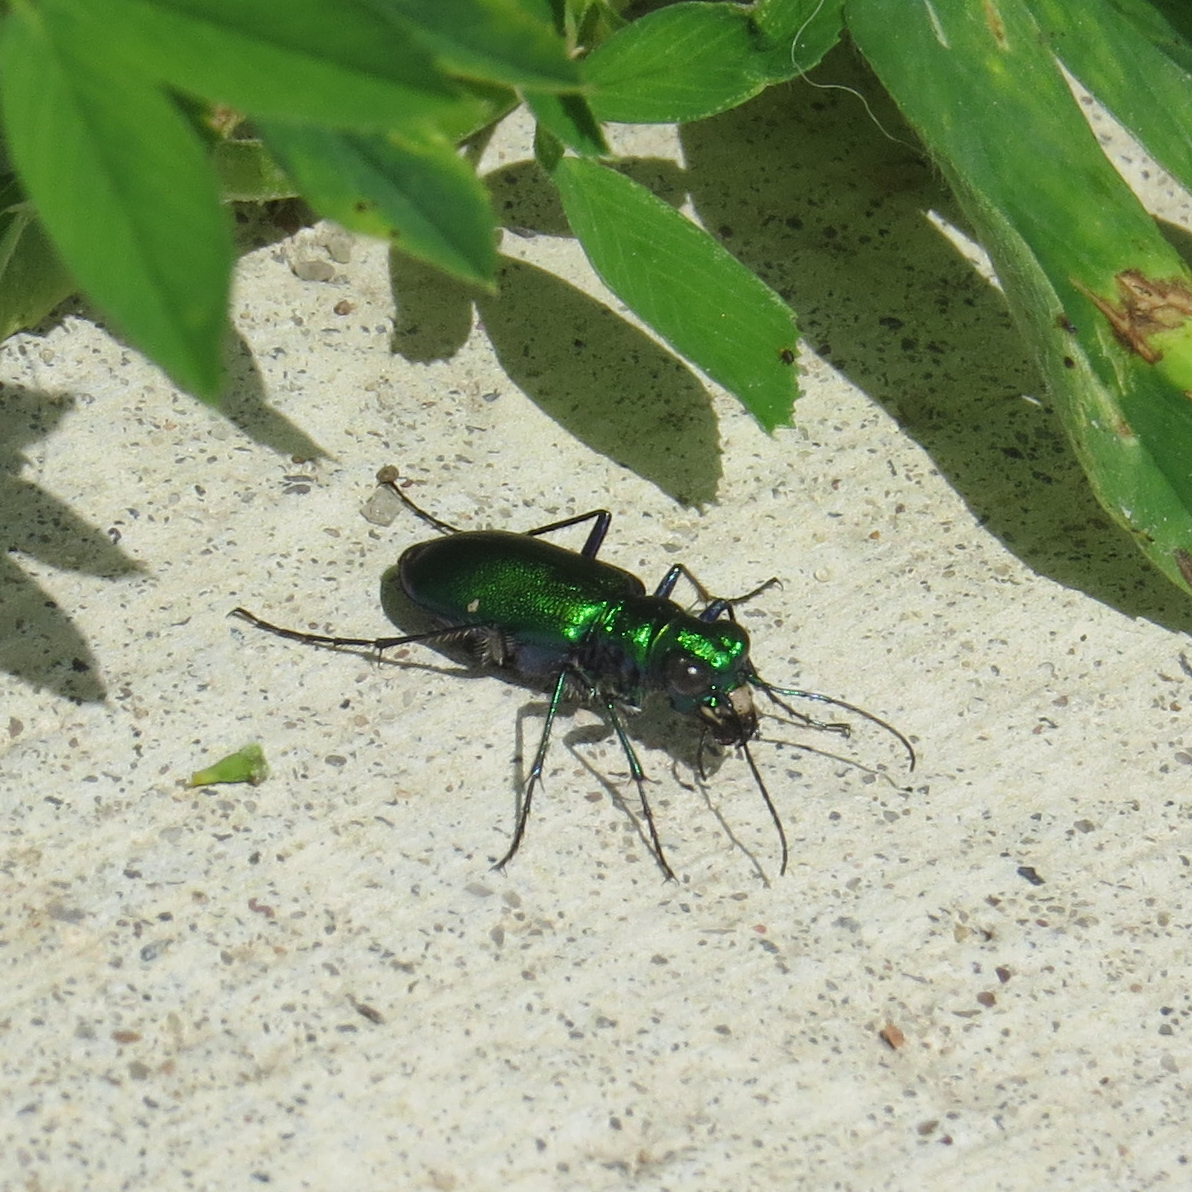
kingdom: Animalia
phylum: Arthropoda
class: Insecta
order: Coleoptera
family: Carabidae
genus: Cicindela
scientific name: Cicindela sexguttata
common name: Six-spotted tiger beetle
